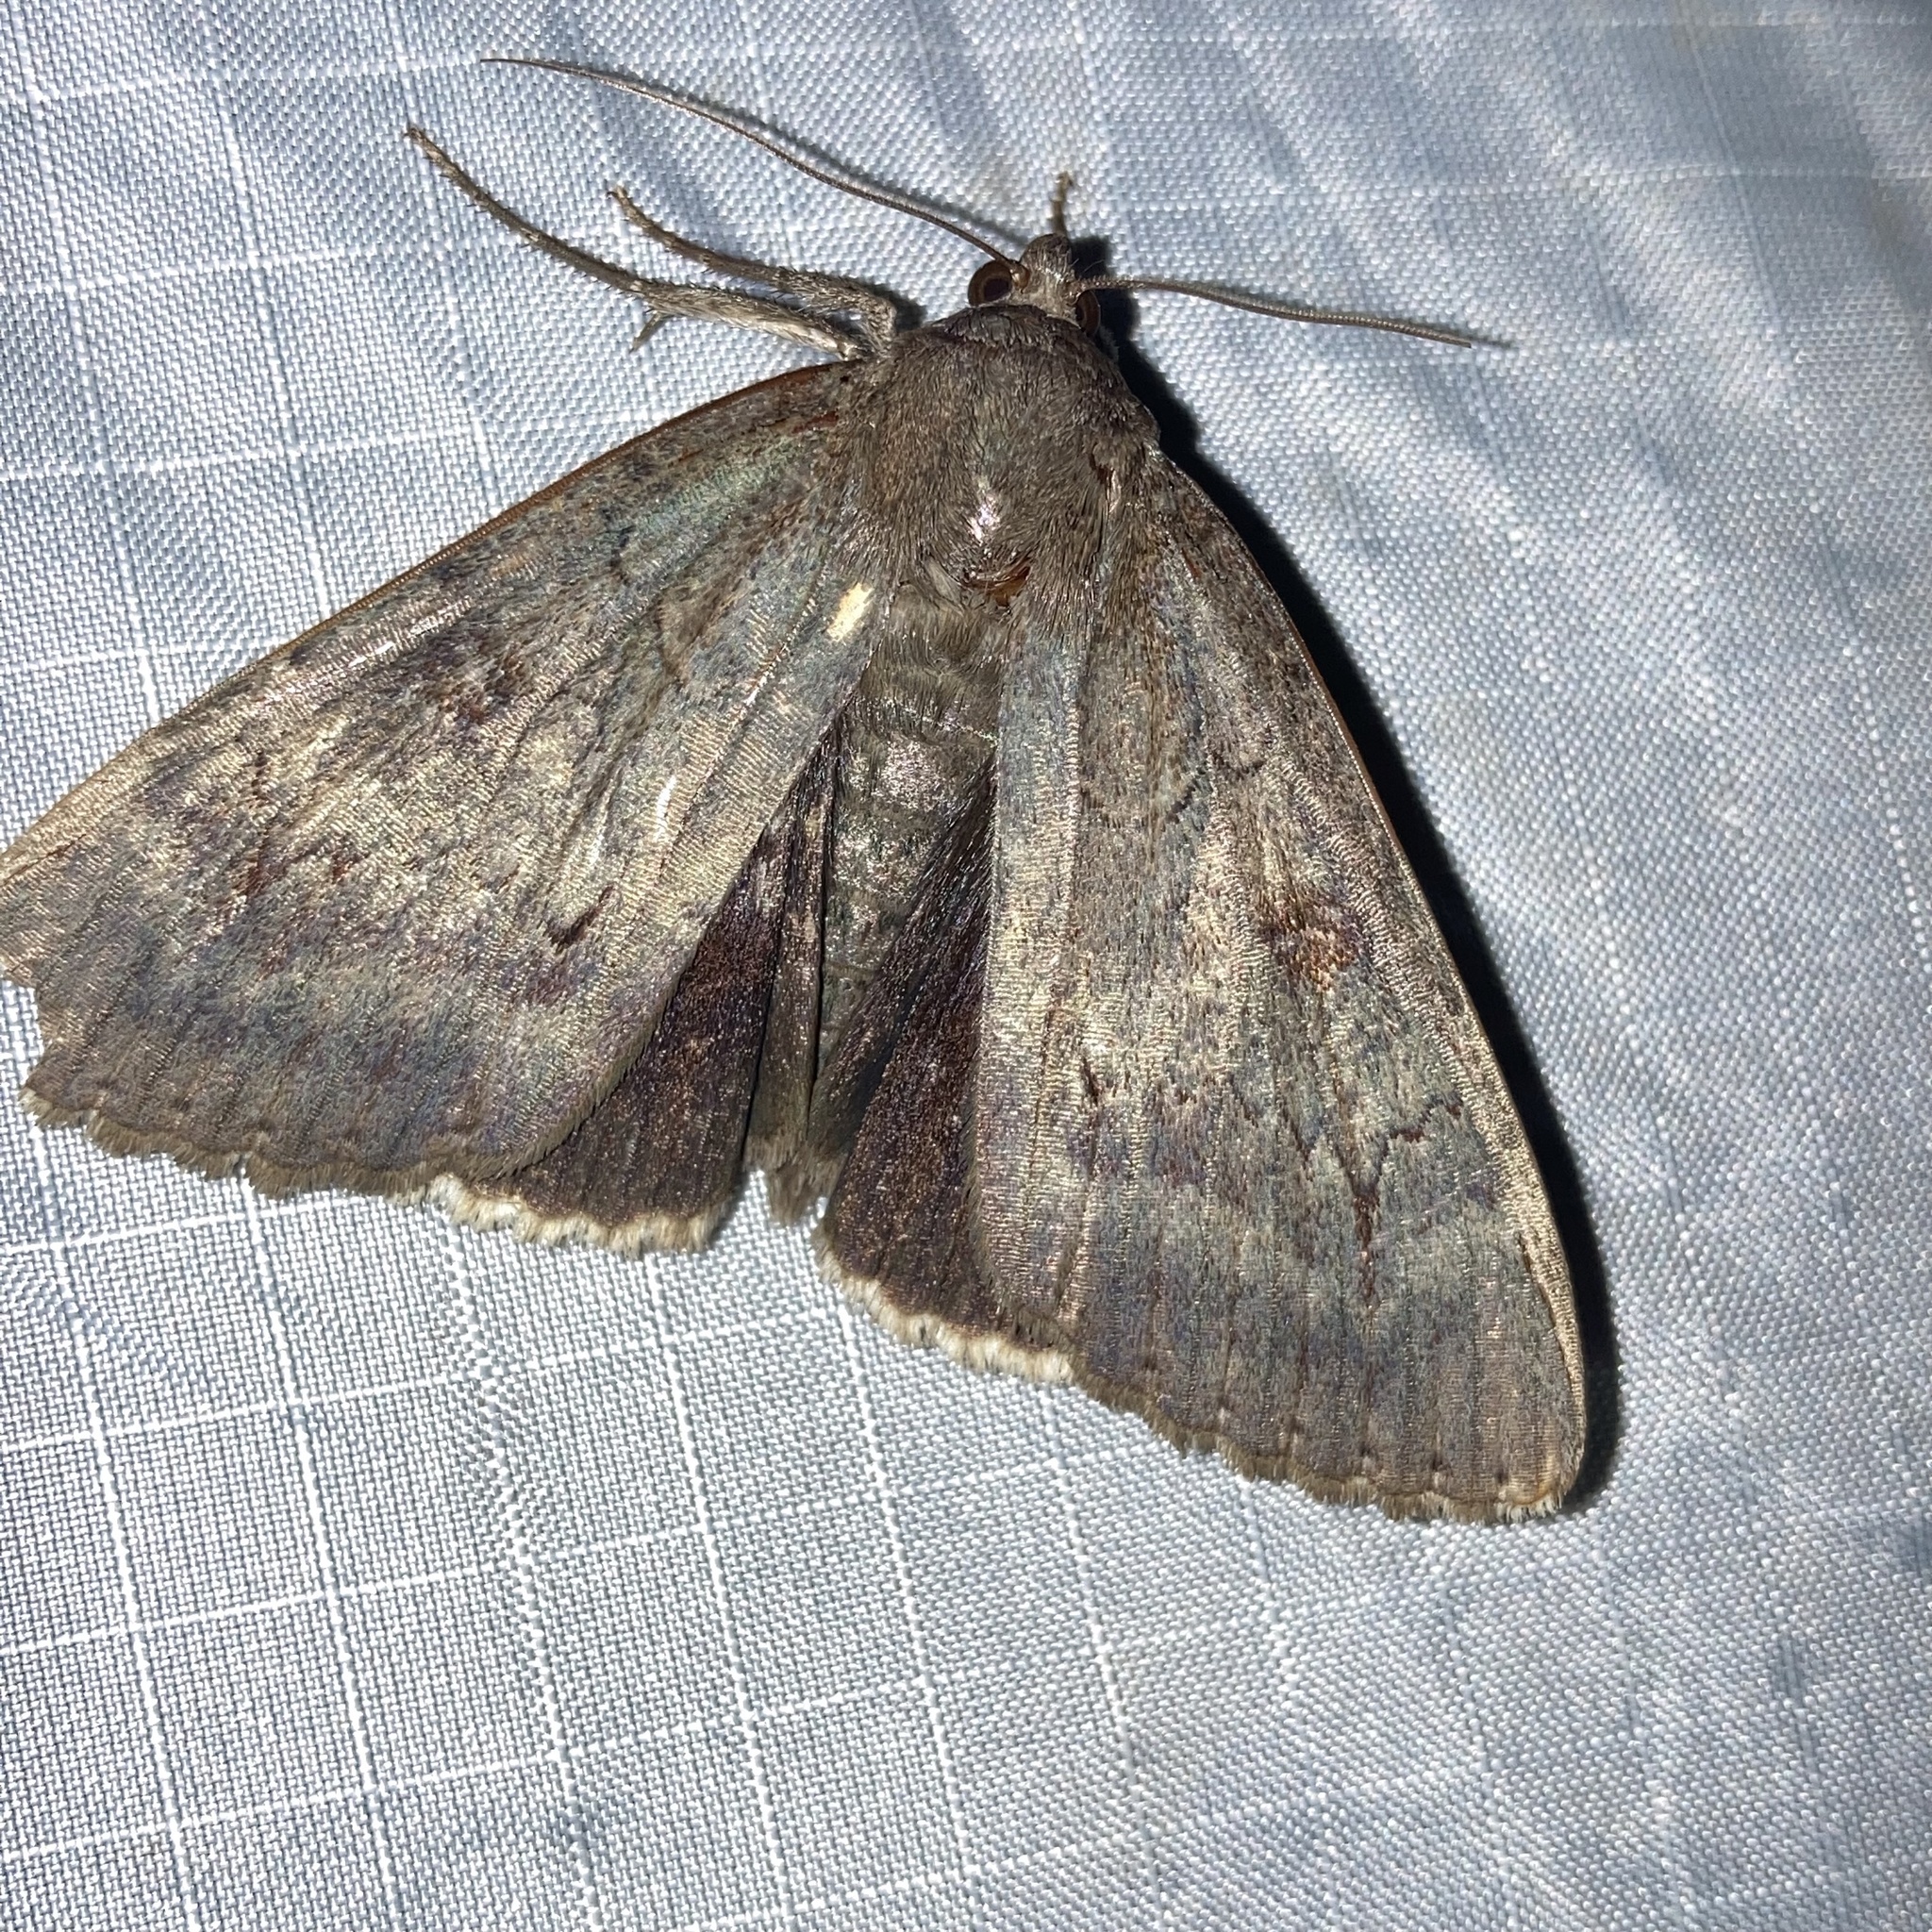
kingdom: Animalia
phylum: Arthropoda
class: Insecta
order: Lepidoptera
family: Erebidae
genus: Catocala
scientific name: Catocala obscura
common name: Obscure underwing moth
